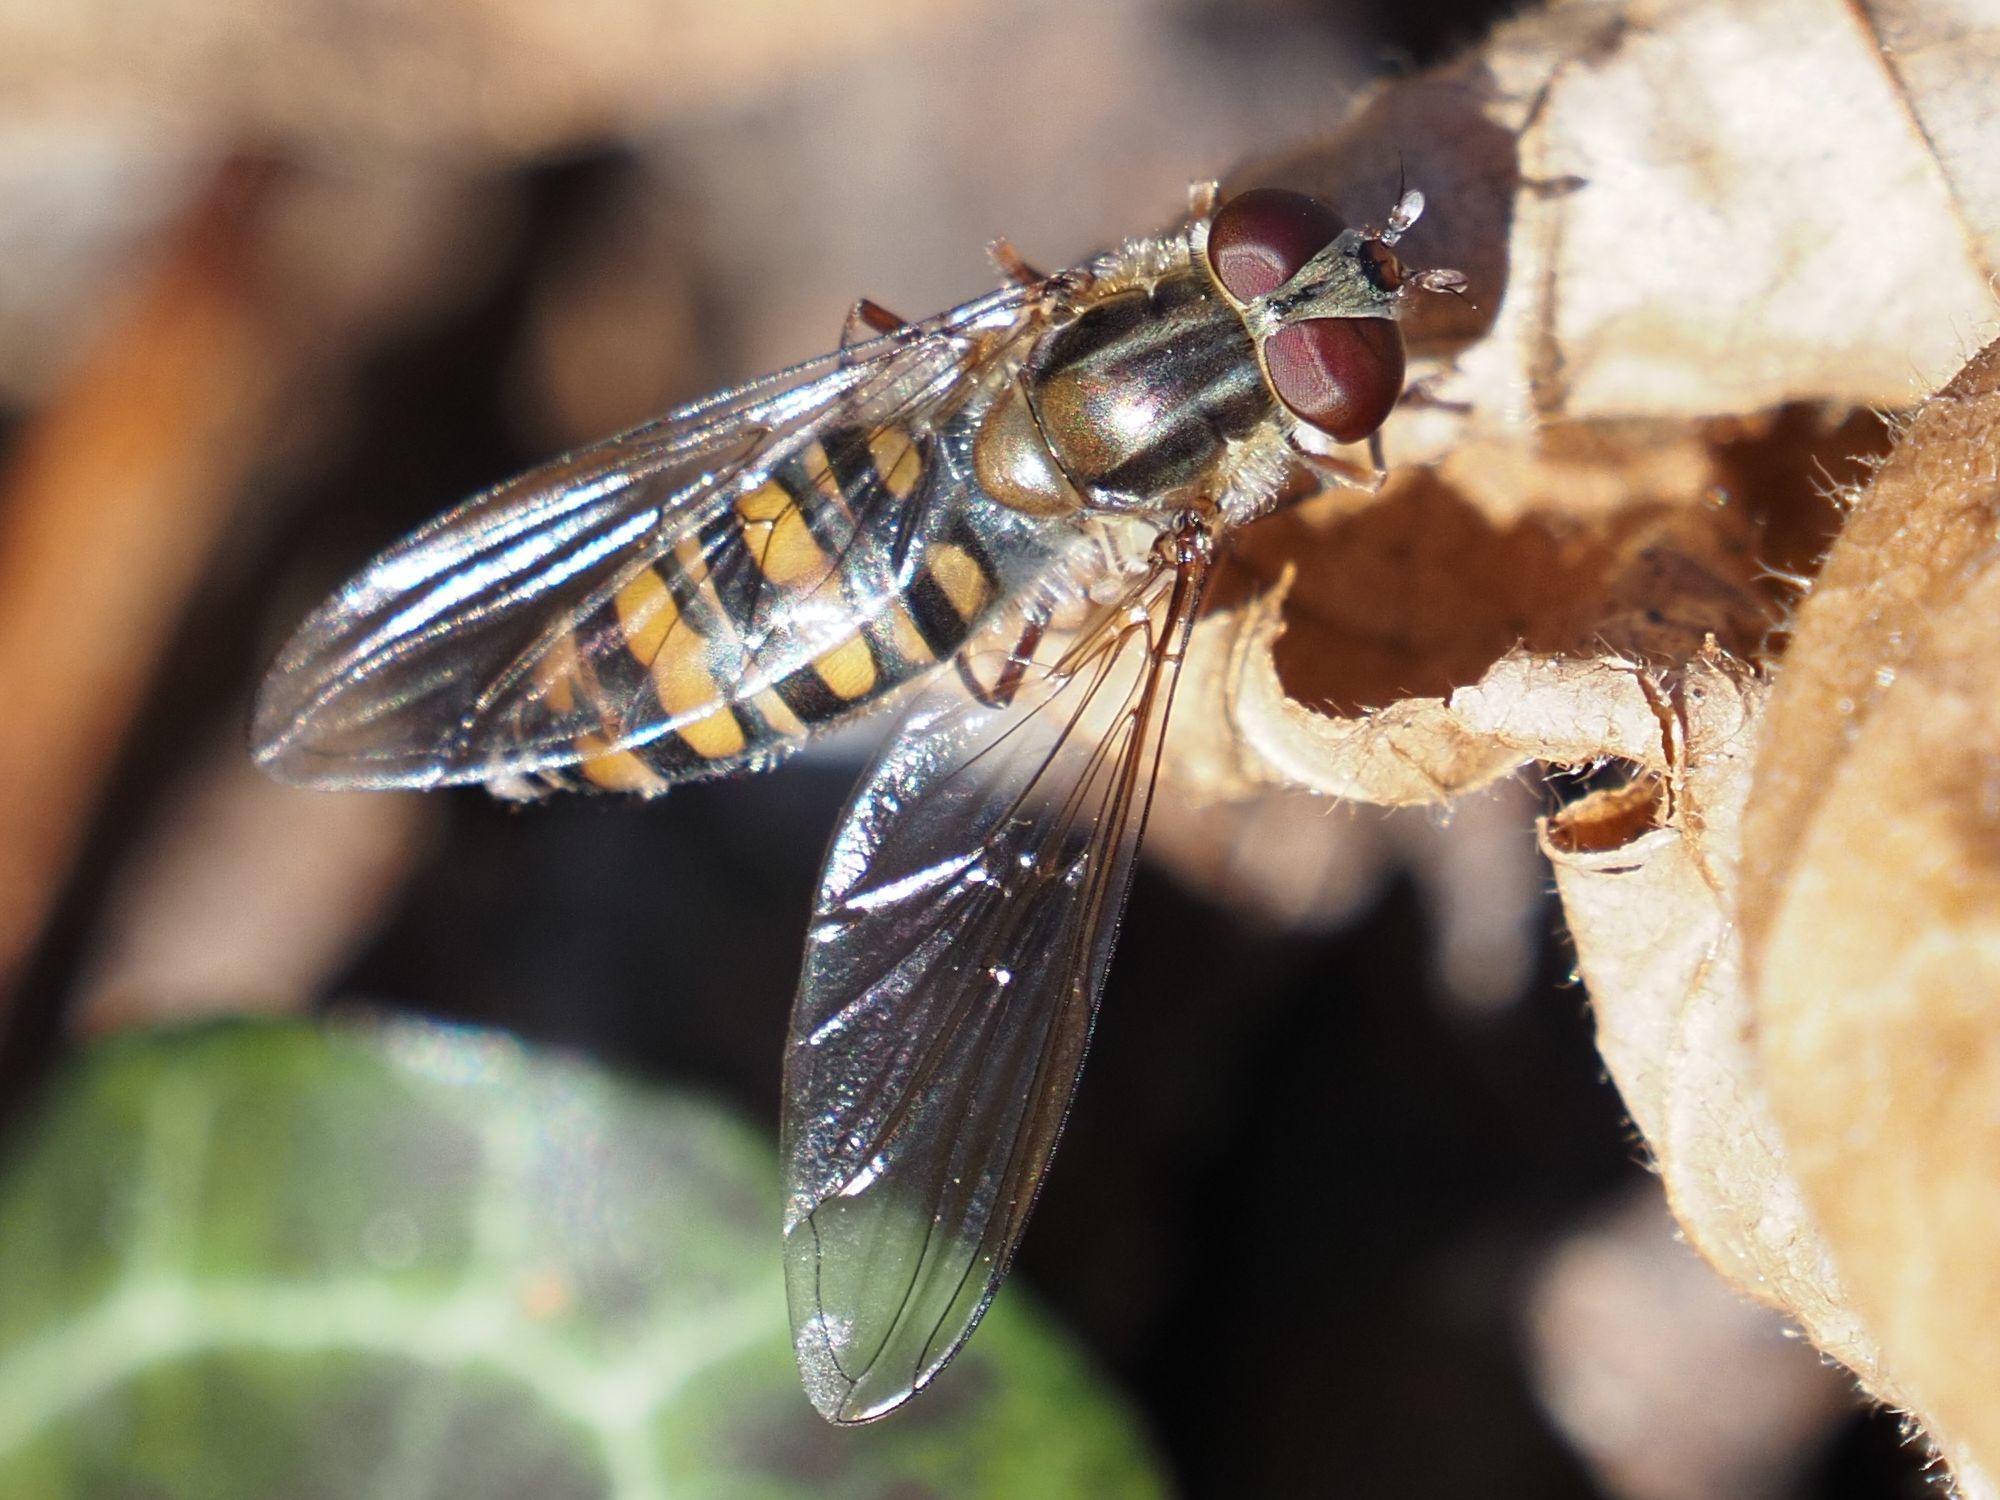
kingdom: Animalia
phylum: Arthropoda
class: Insecta
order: Diptera
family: Syrphidae
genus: Episyrphus
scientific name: Episyrphus balteatus
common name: Marmalade hoverfly
